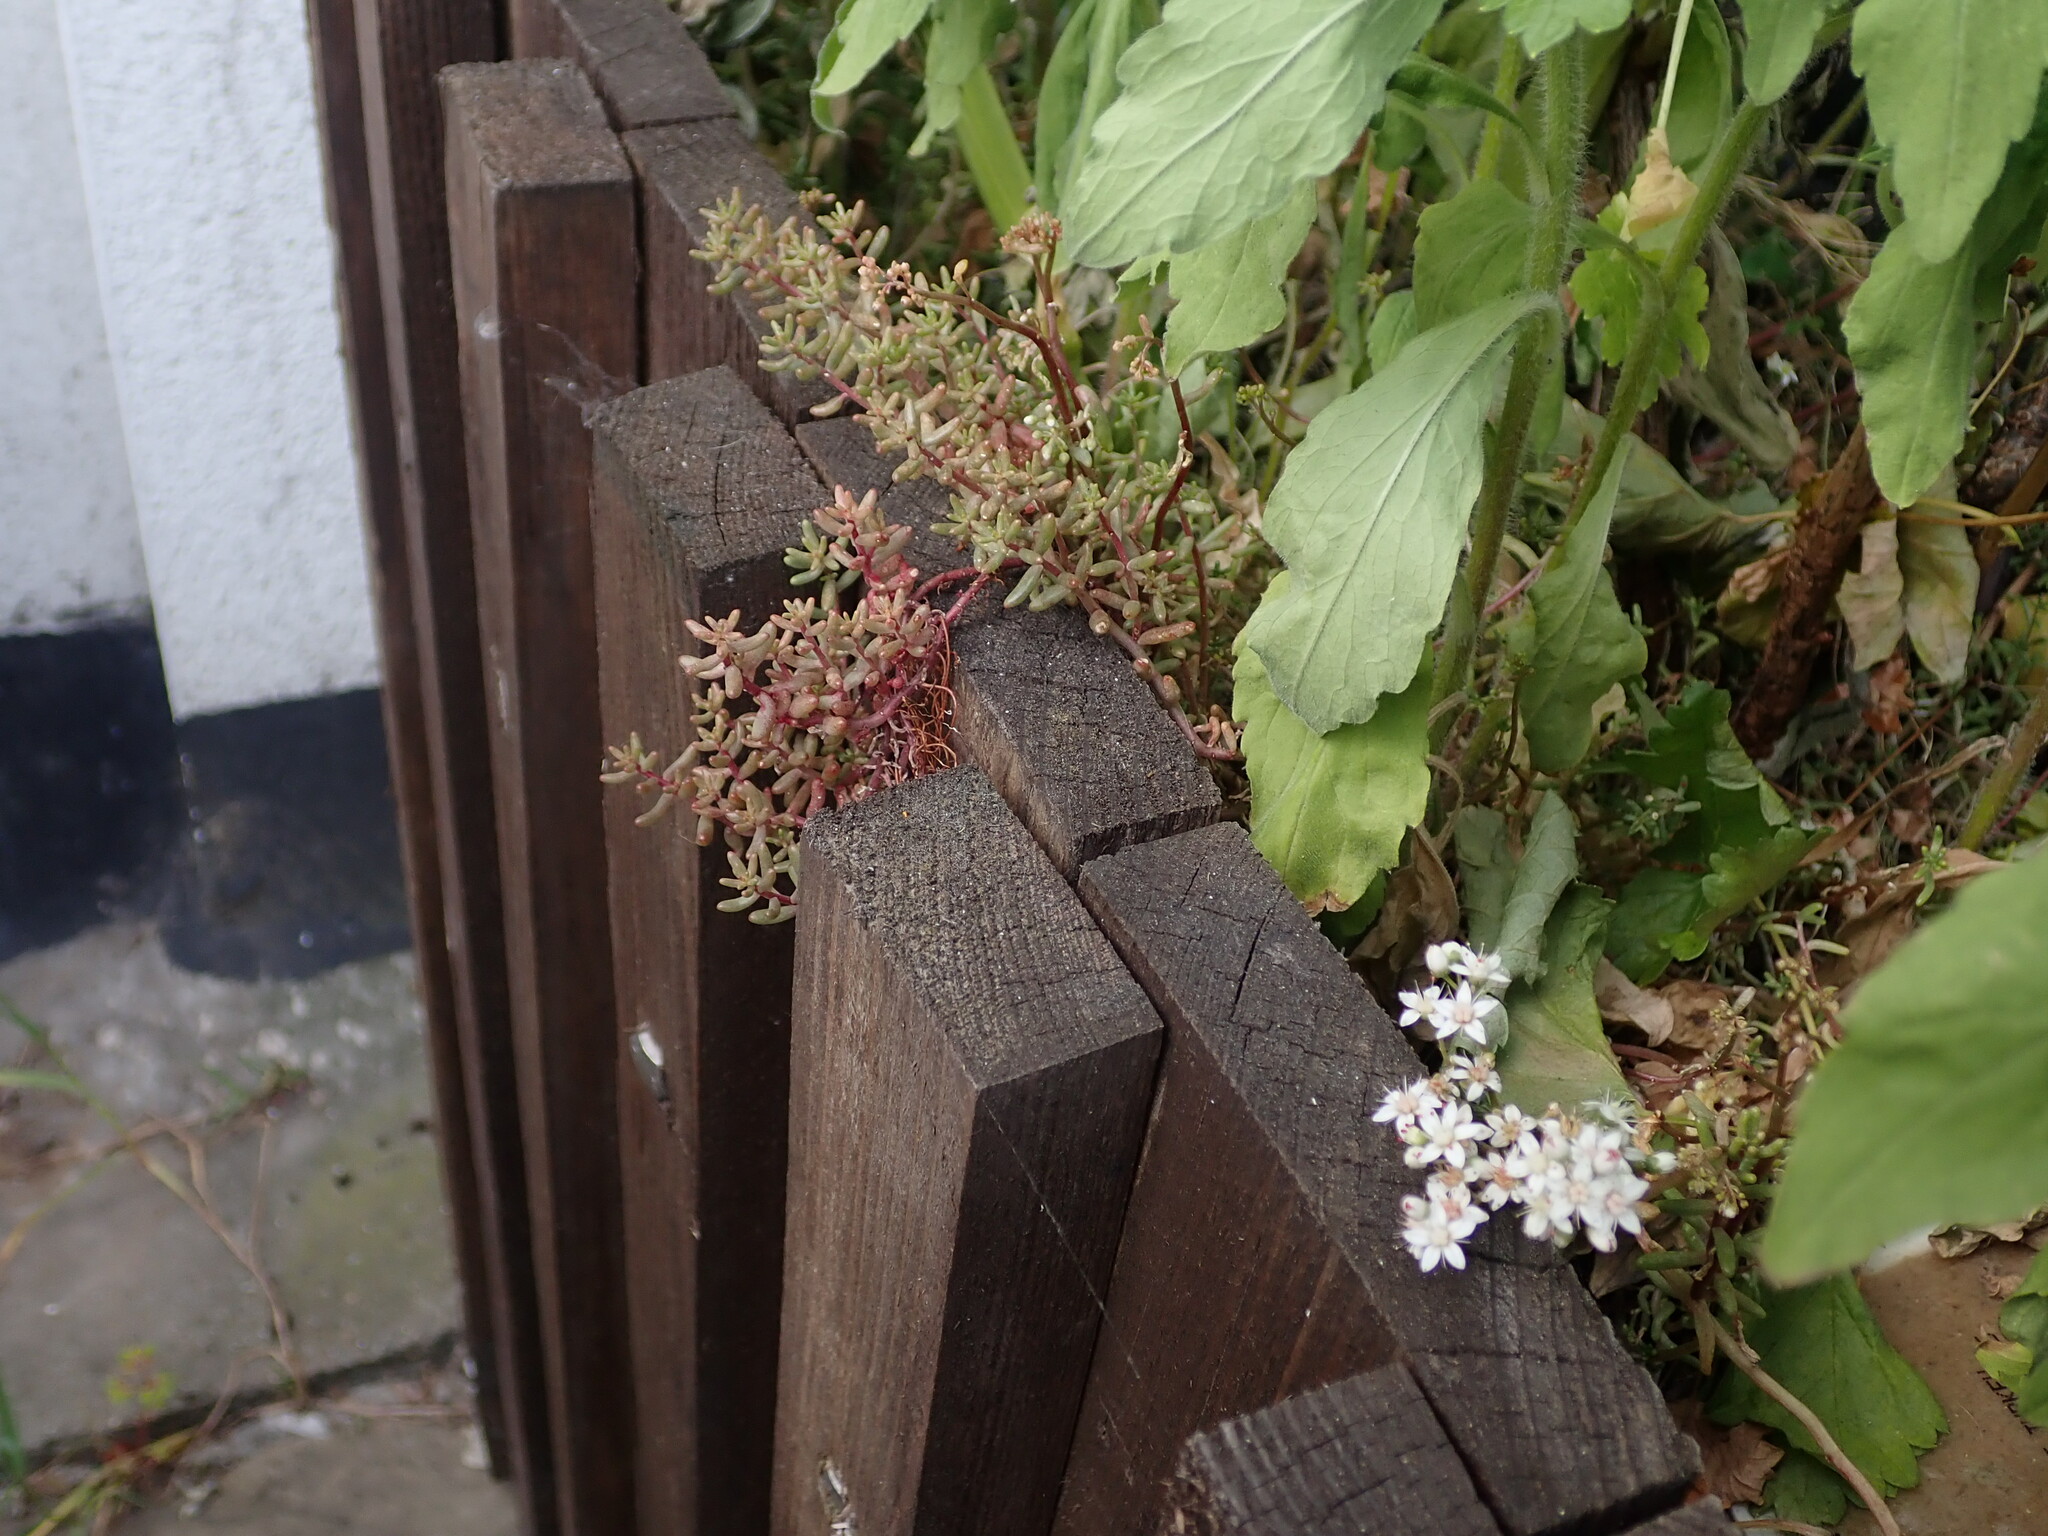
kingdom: Plantae
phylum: Tracheophyta
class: Magnoliopsida
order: Saxifragales
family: Crassulaceae
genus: Sedum
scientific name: Sedum album
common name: White stonecrop
